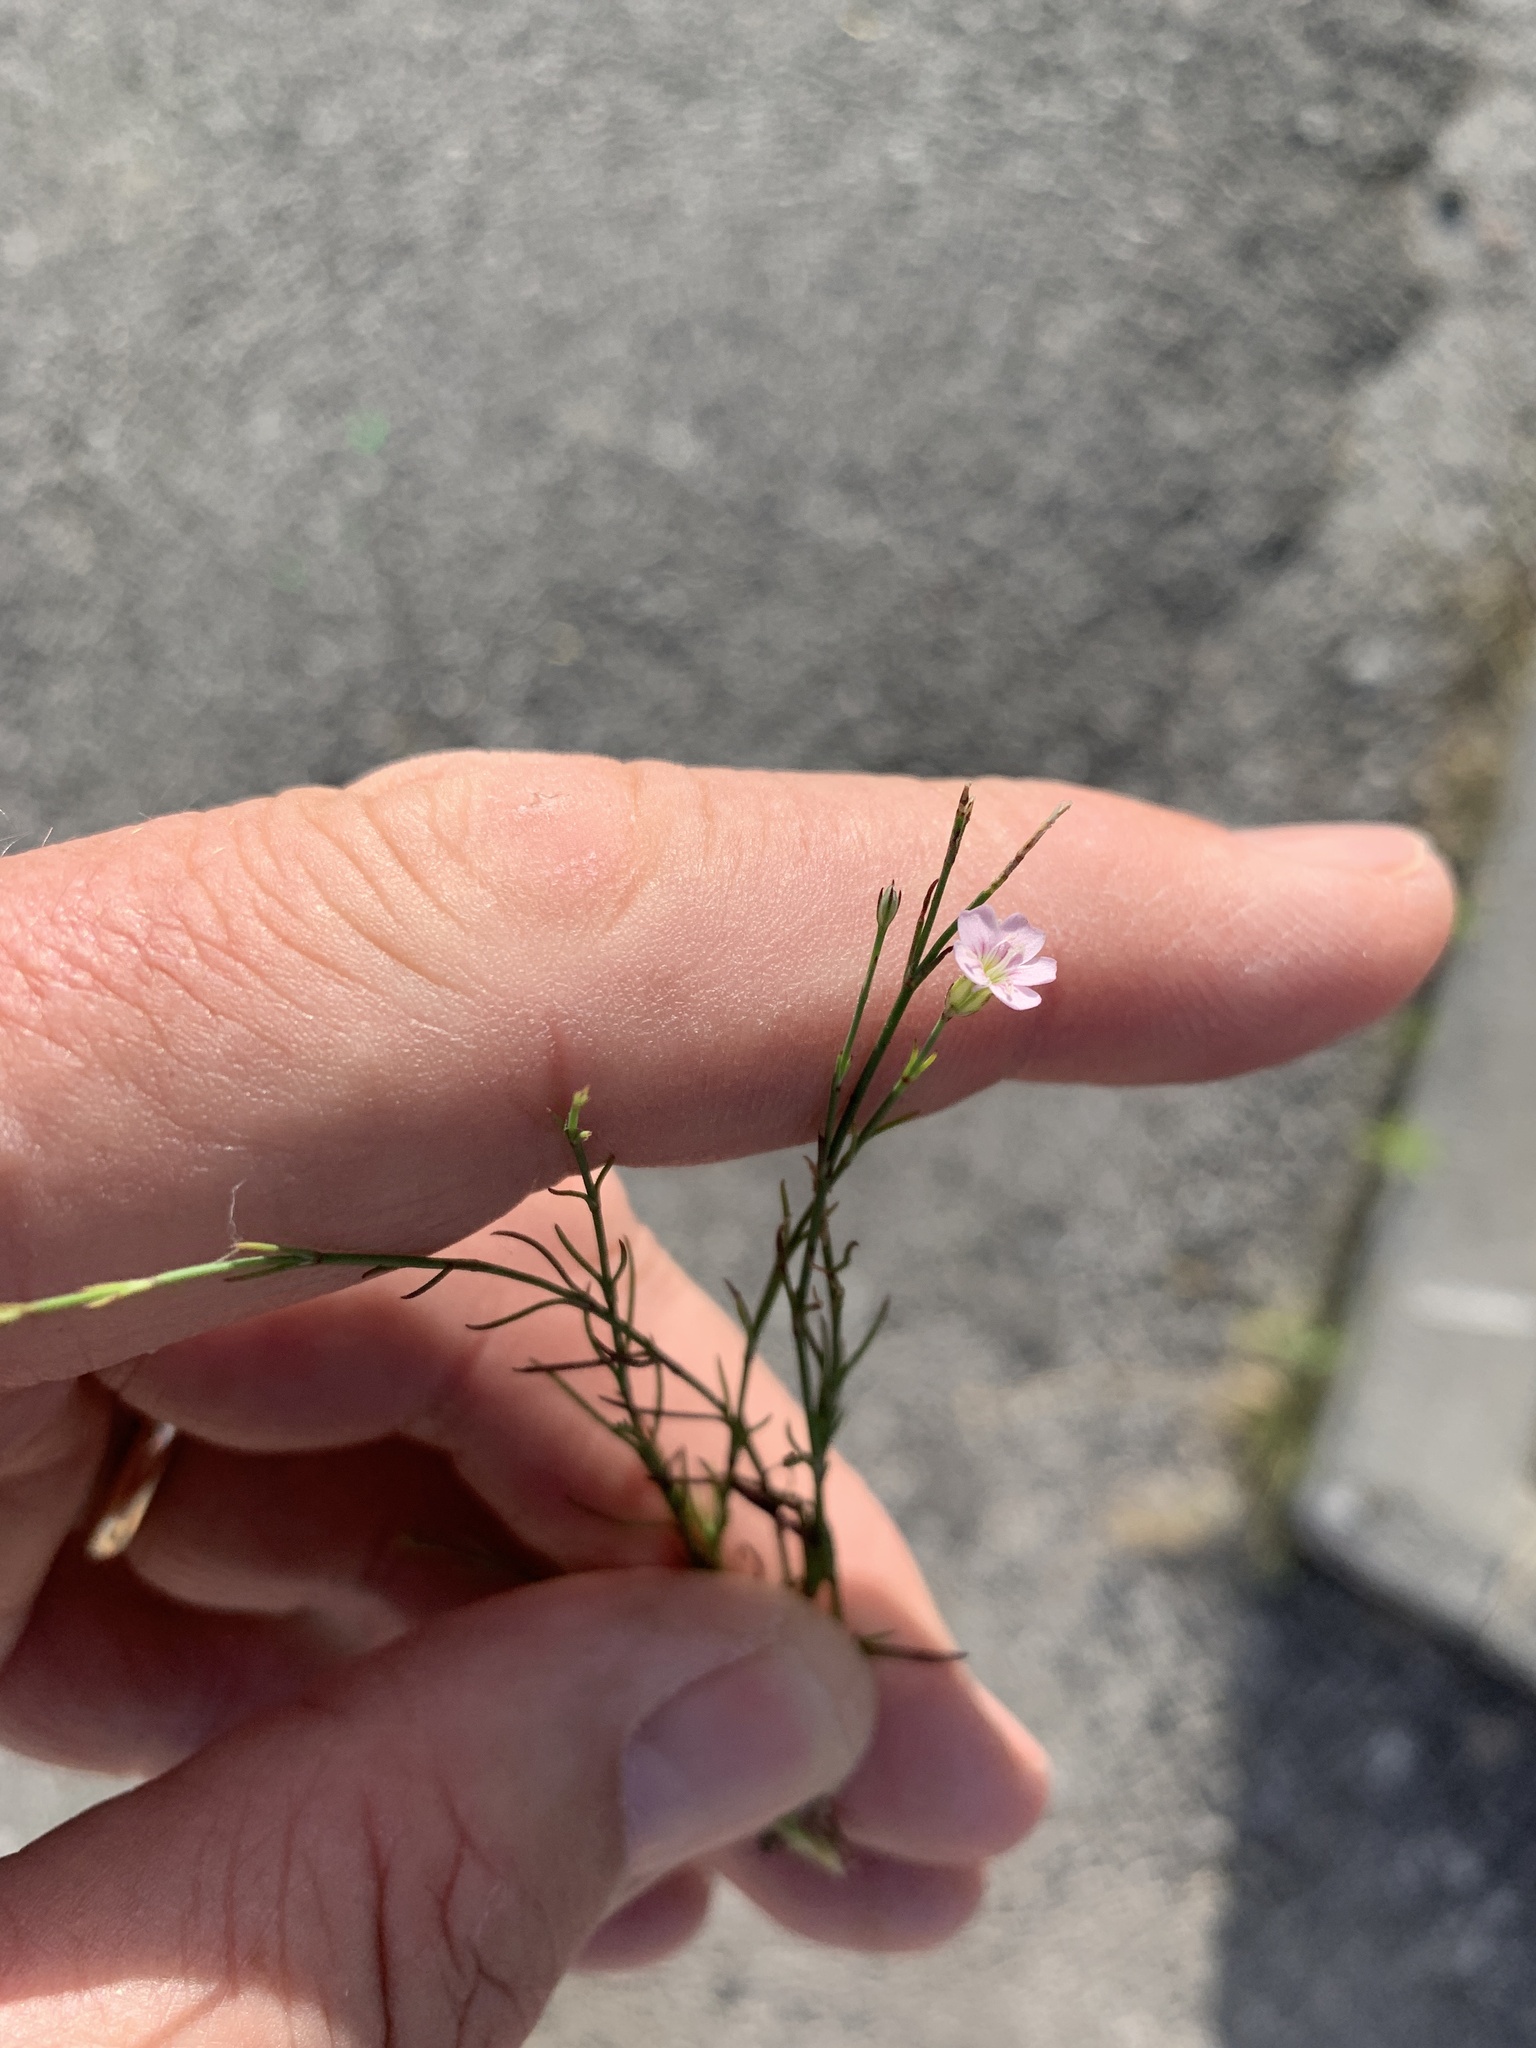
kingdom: Plantae
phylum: Tracheophyta
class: Magnoliopsida
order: Caryophyllales
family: Caryophyllaceae
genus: Petrorhagia
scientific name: Petrorhagia saxifraga
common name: Tunicflower
